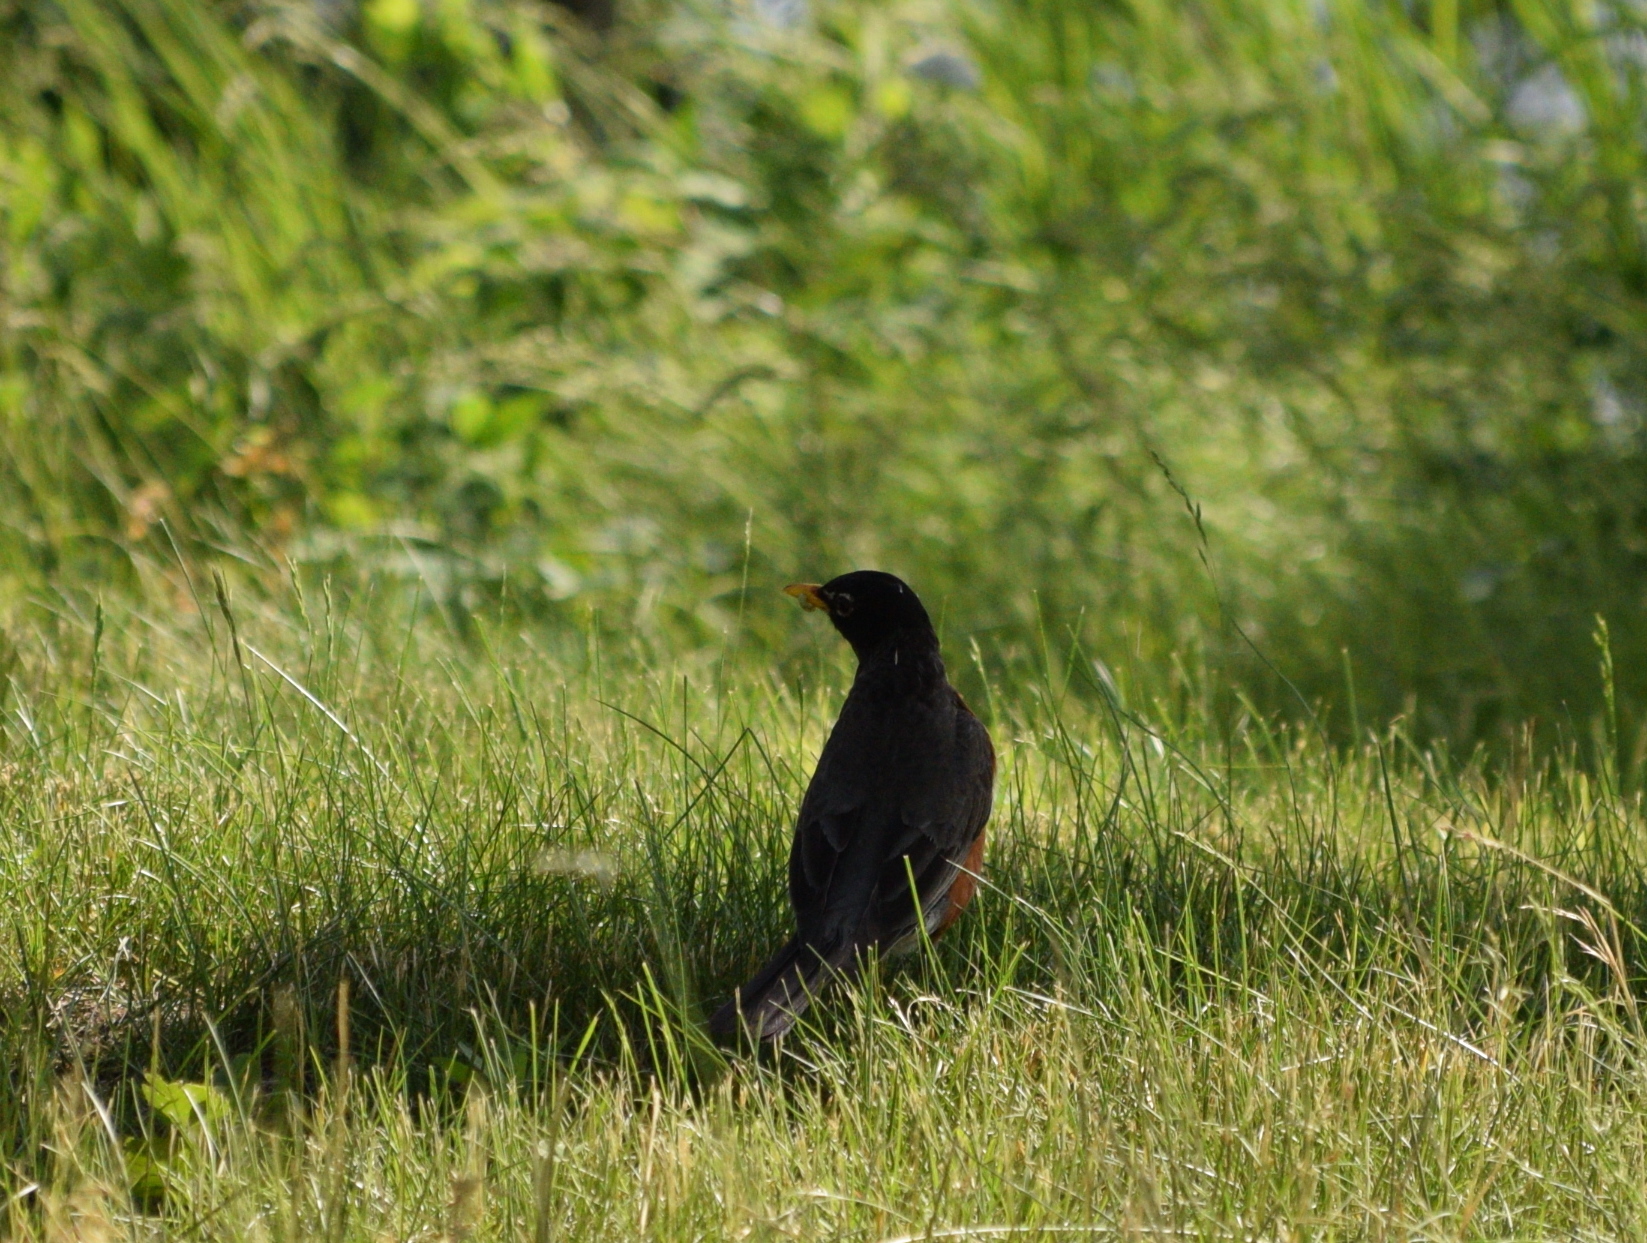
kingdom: Animalia
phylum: Chordata
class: Aves
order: Passeriformes
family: Turdidae
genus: Turdus
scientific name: Turdus migratorius
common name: American robin
